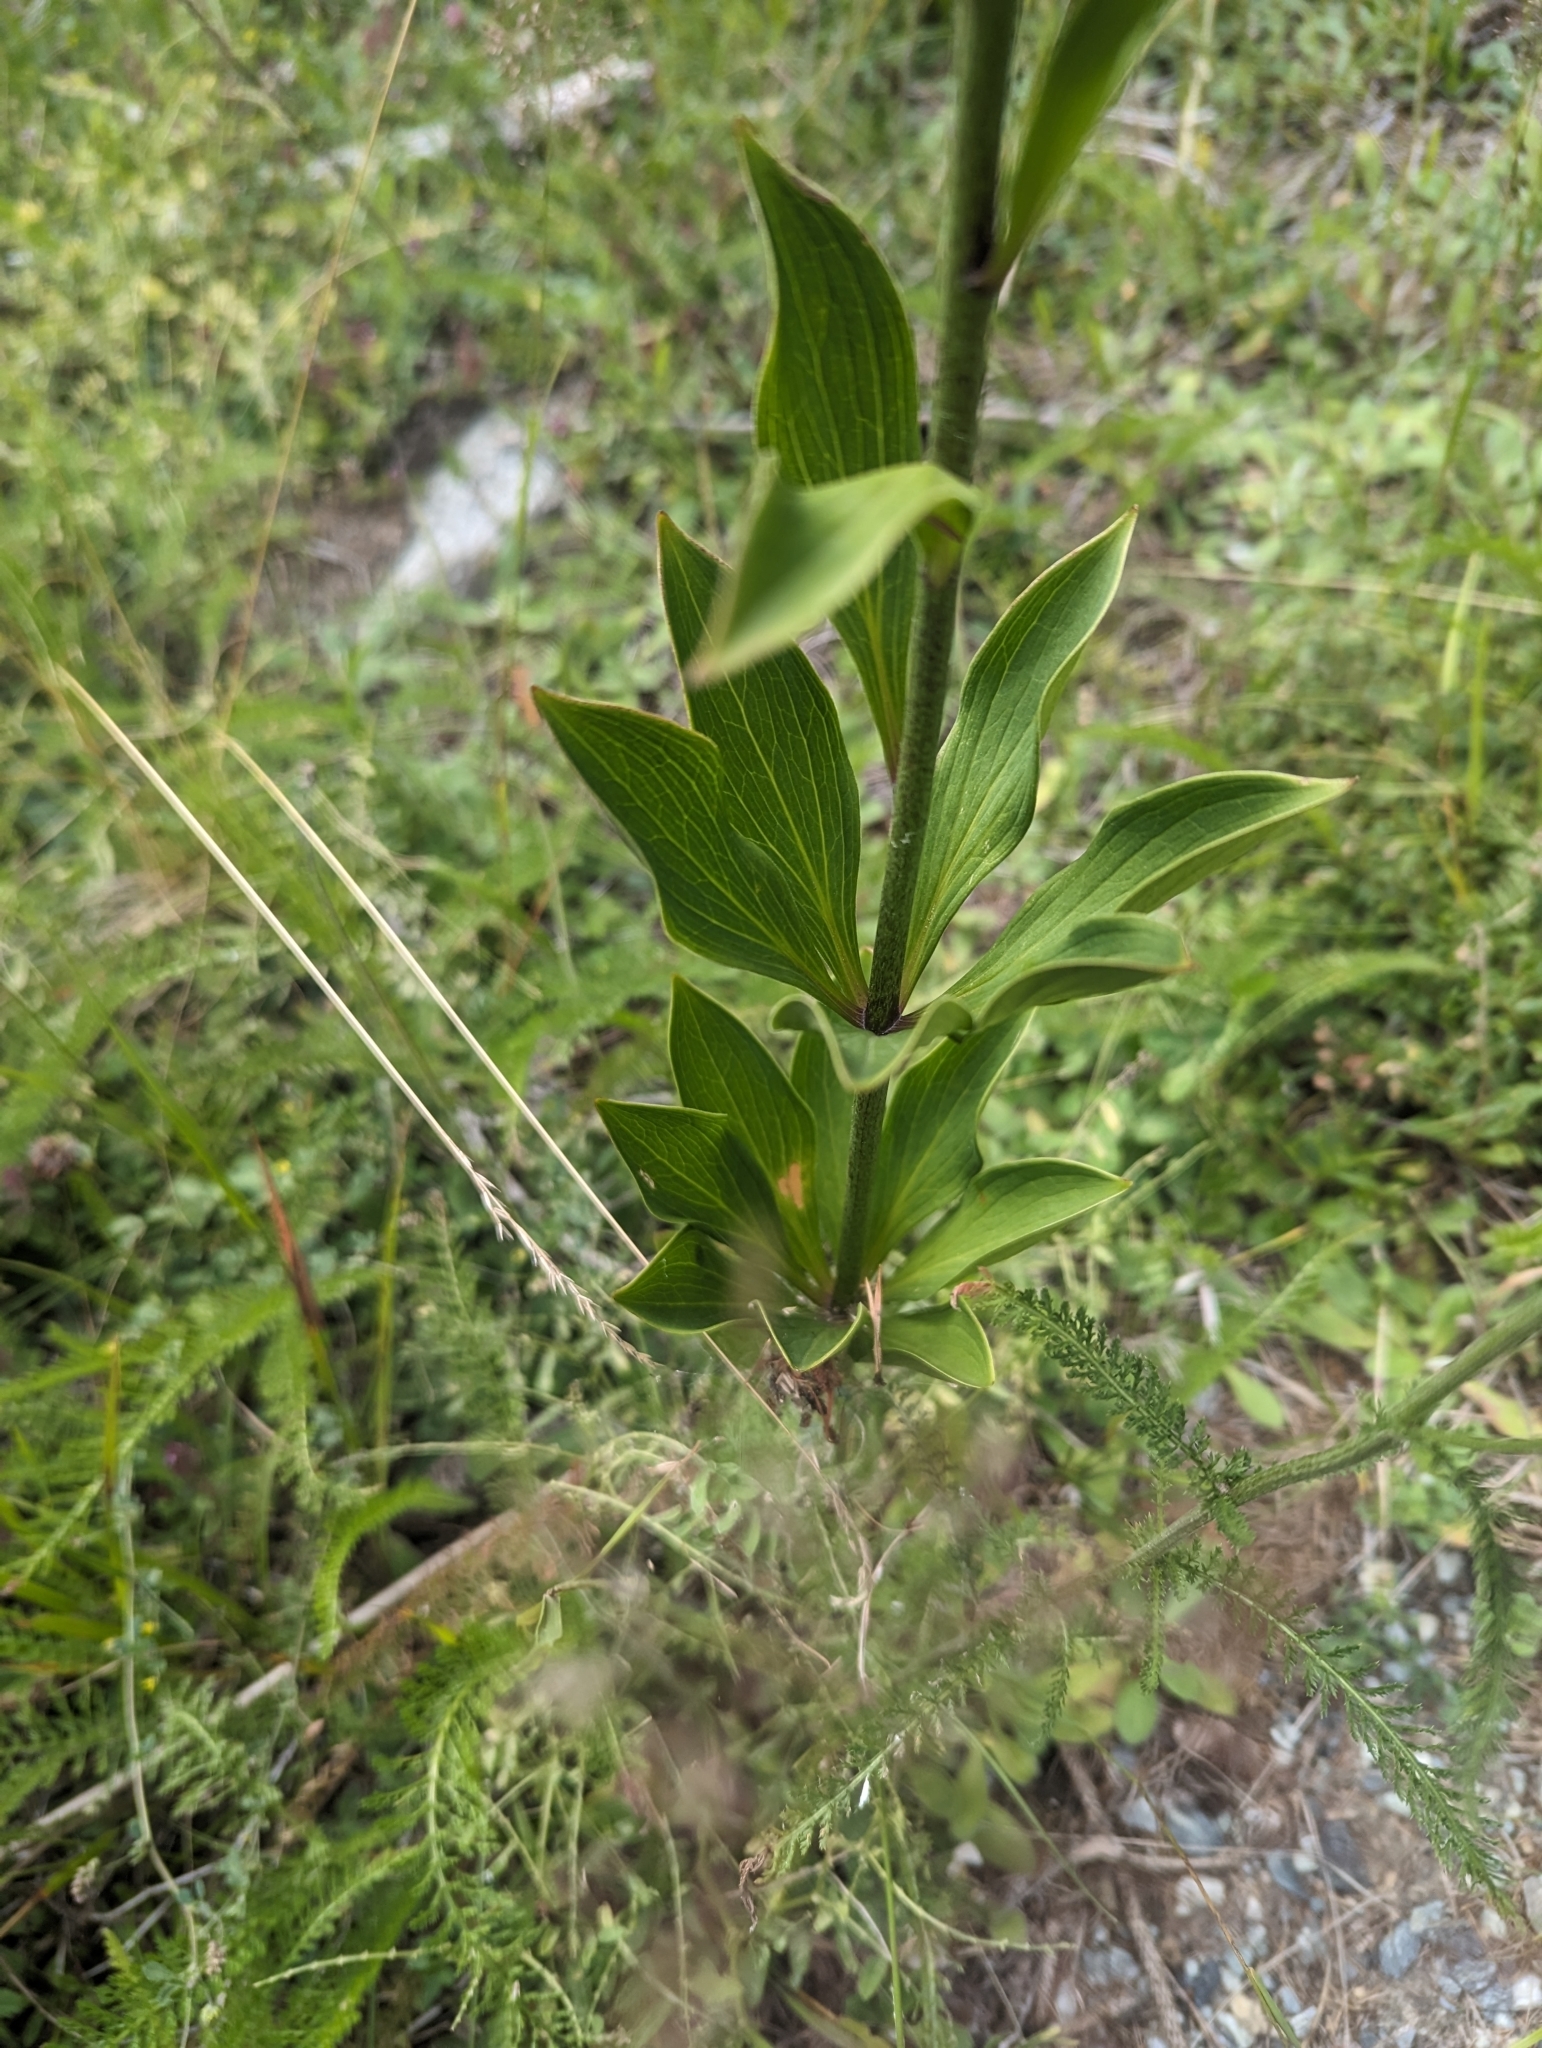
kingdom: Plantae
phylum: Tracheophyta
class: Liliopsida
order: Liliales
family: Liliaceae
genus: Lilium
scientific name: Lilium martagon
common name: Martagon lily
